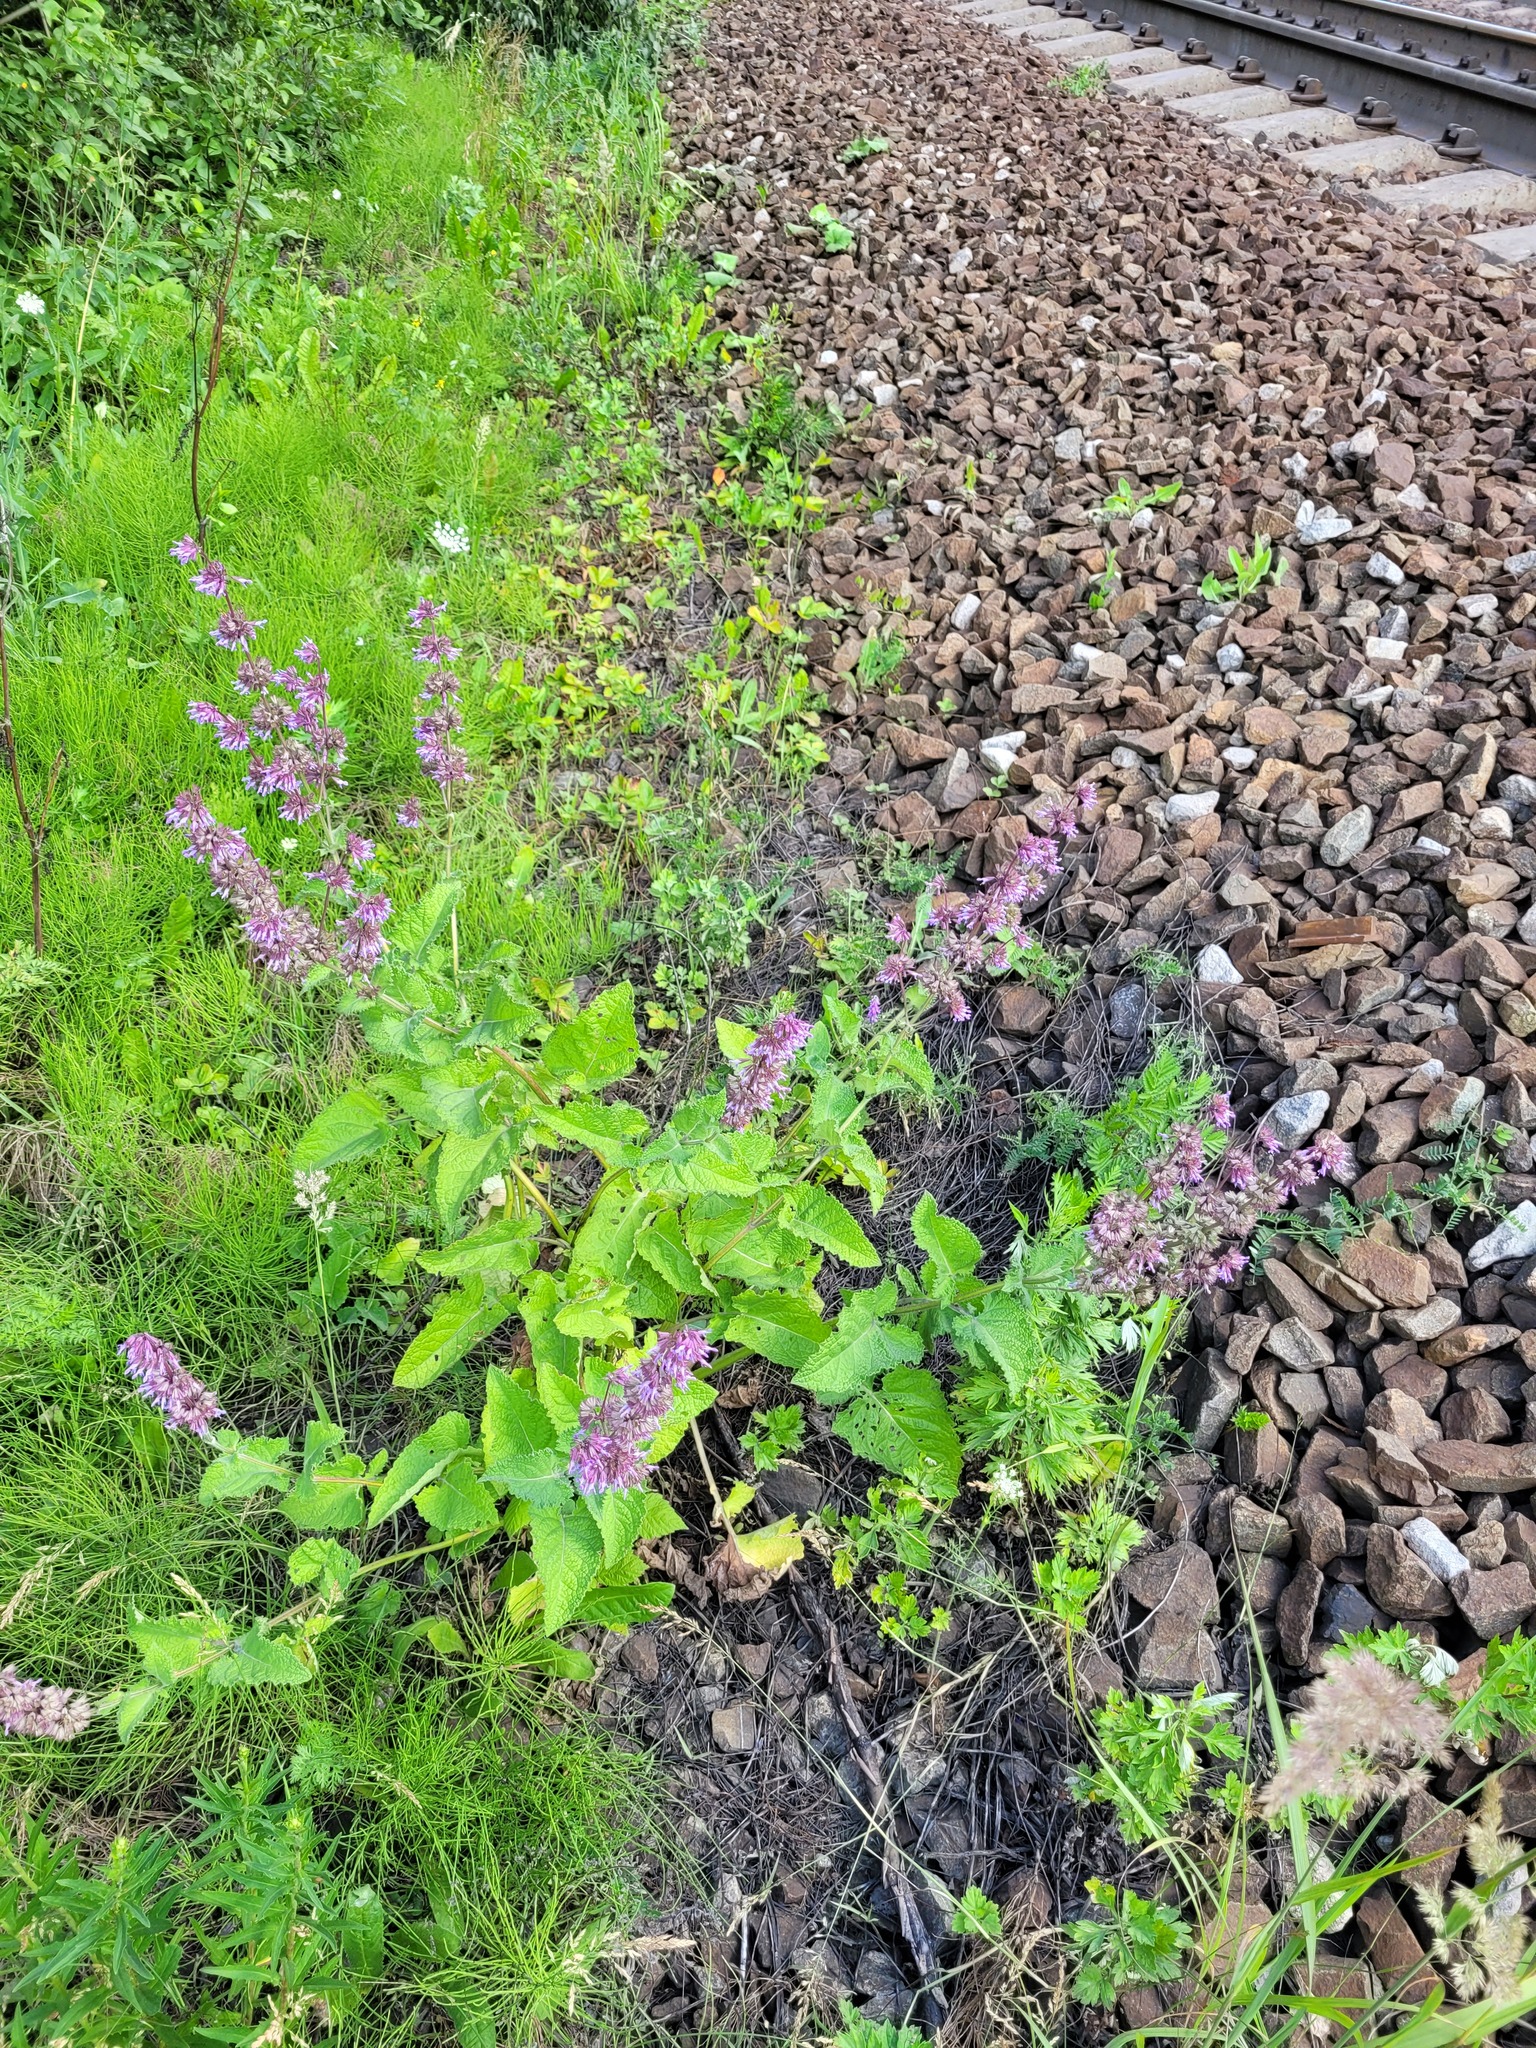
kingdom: Plantae
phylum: Tracheophyta
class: Magnoliopsida
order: Lamiales
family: Lamiaceae
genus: Salvia
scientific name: Salvia verticillata
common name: Whorled clary
